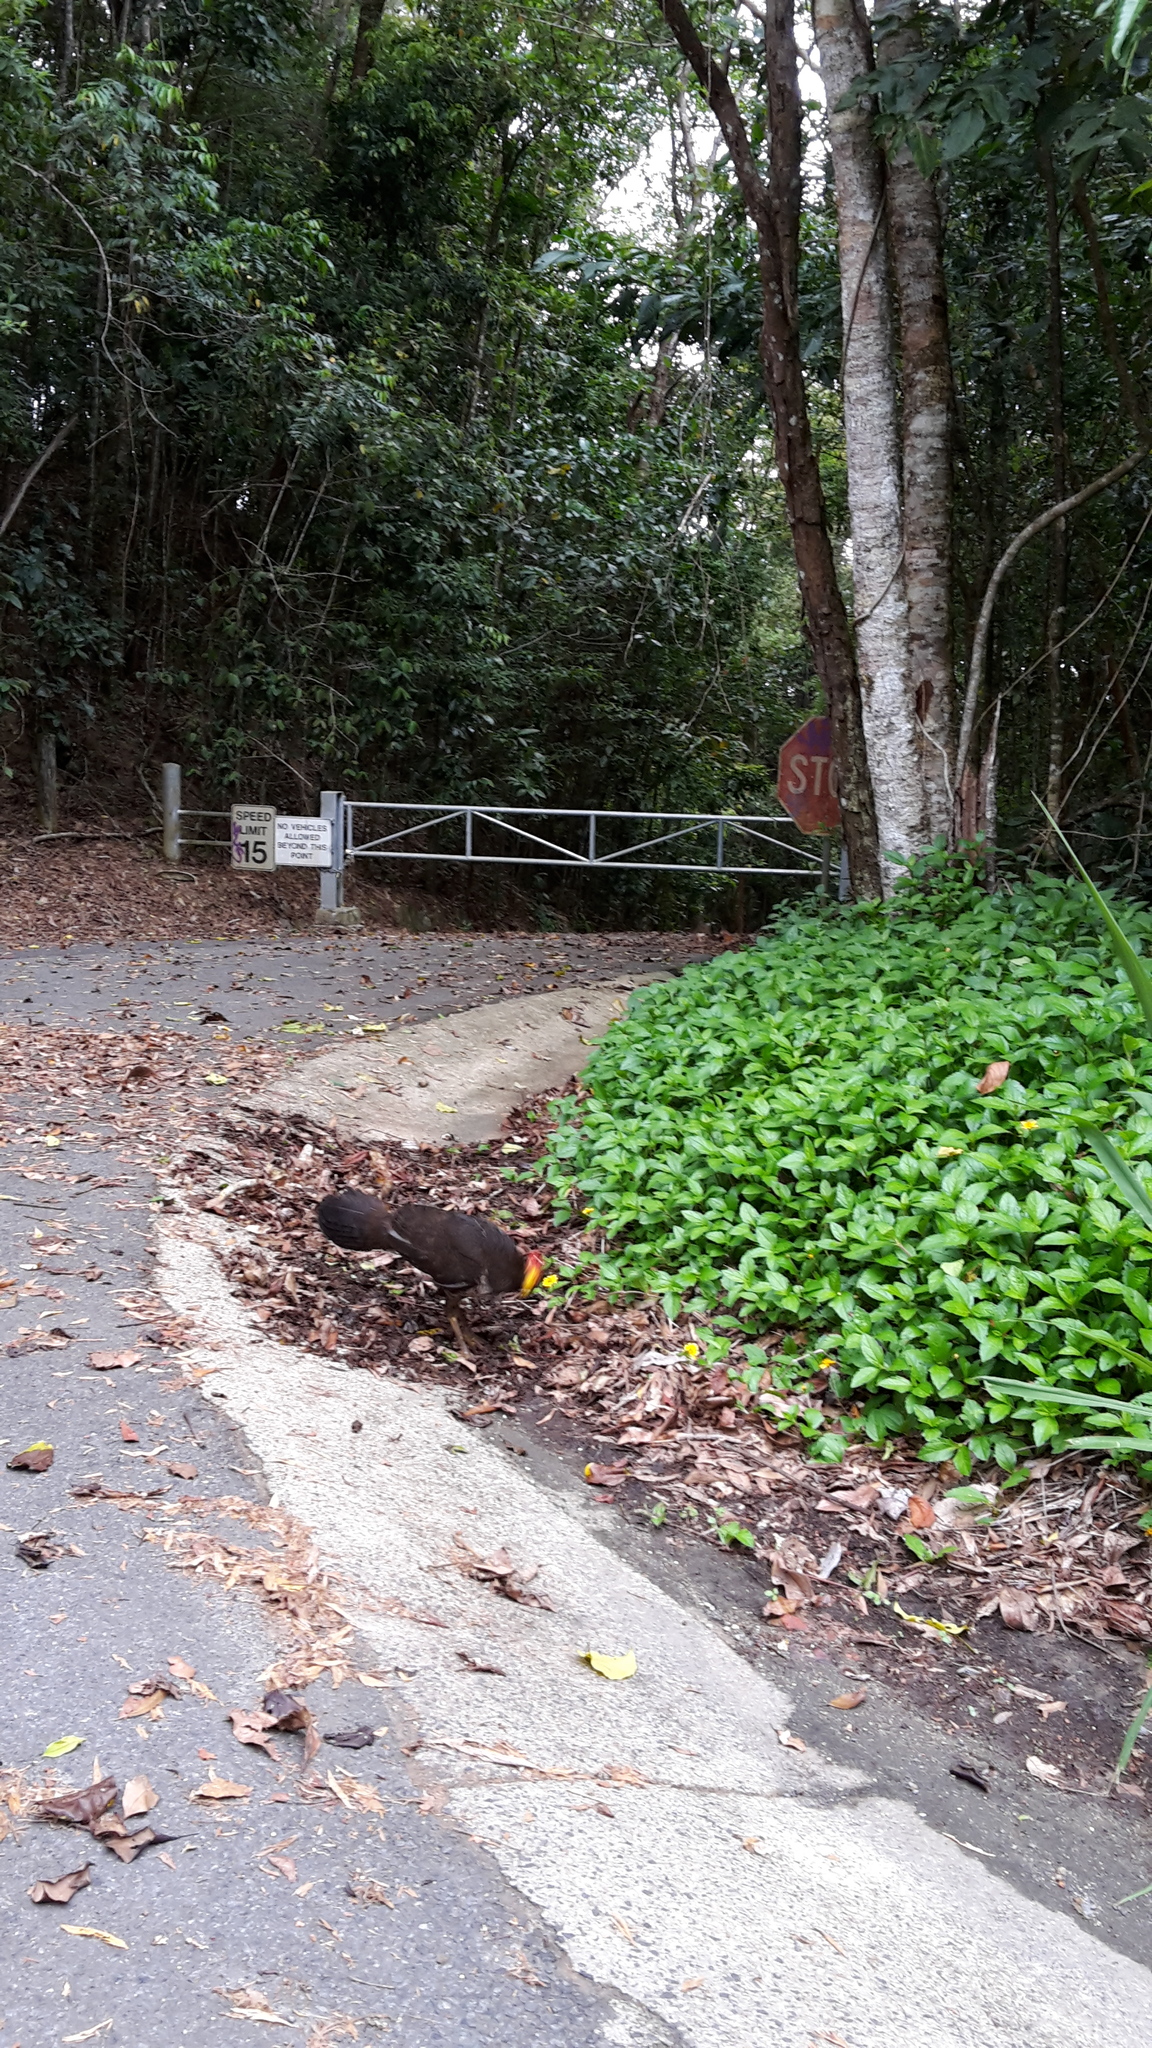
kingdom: Animalia
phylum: Chordata
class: Aves
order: Galliformes
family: Megapodiidae
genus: Alectura
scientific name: Alectura lathami
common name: Australian brushturkey
